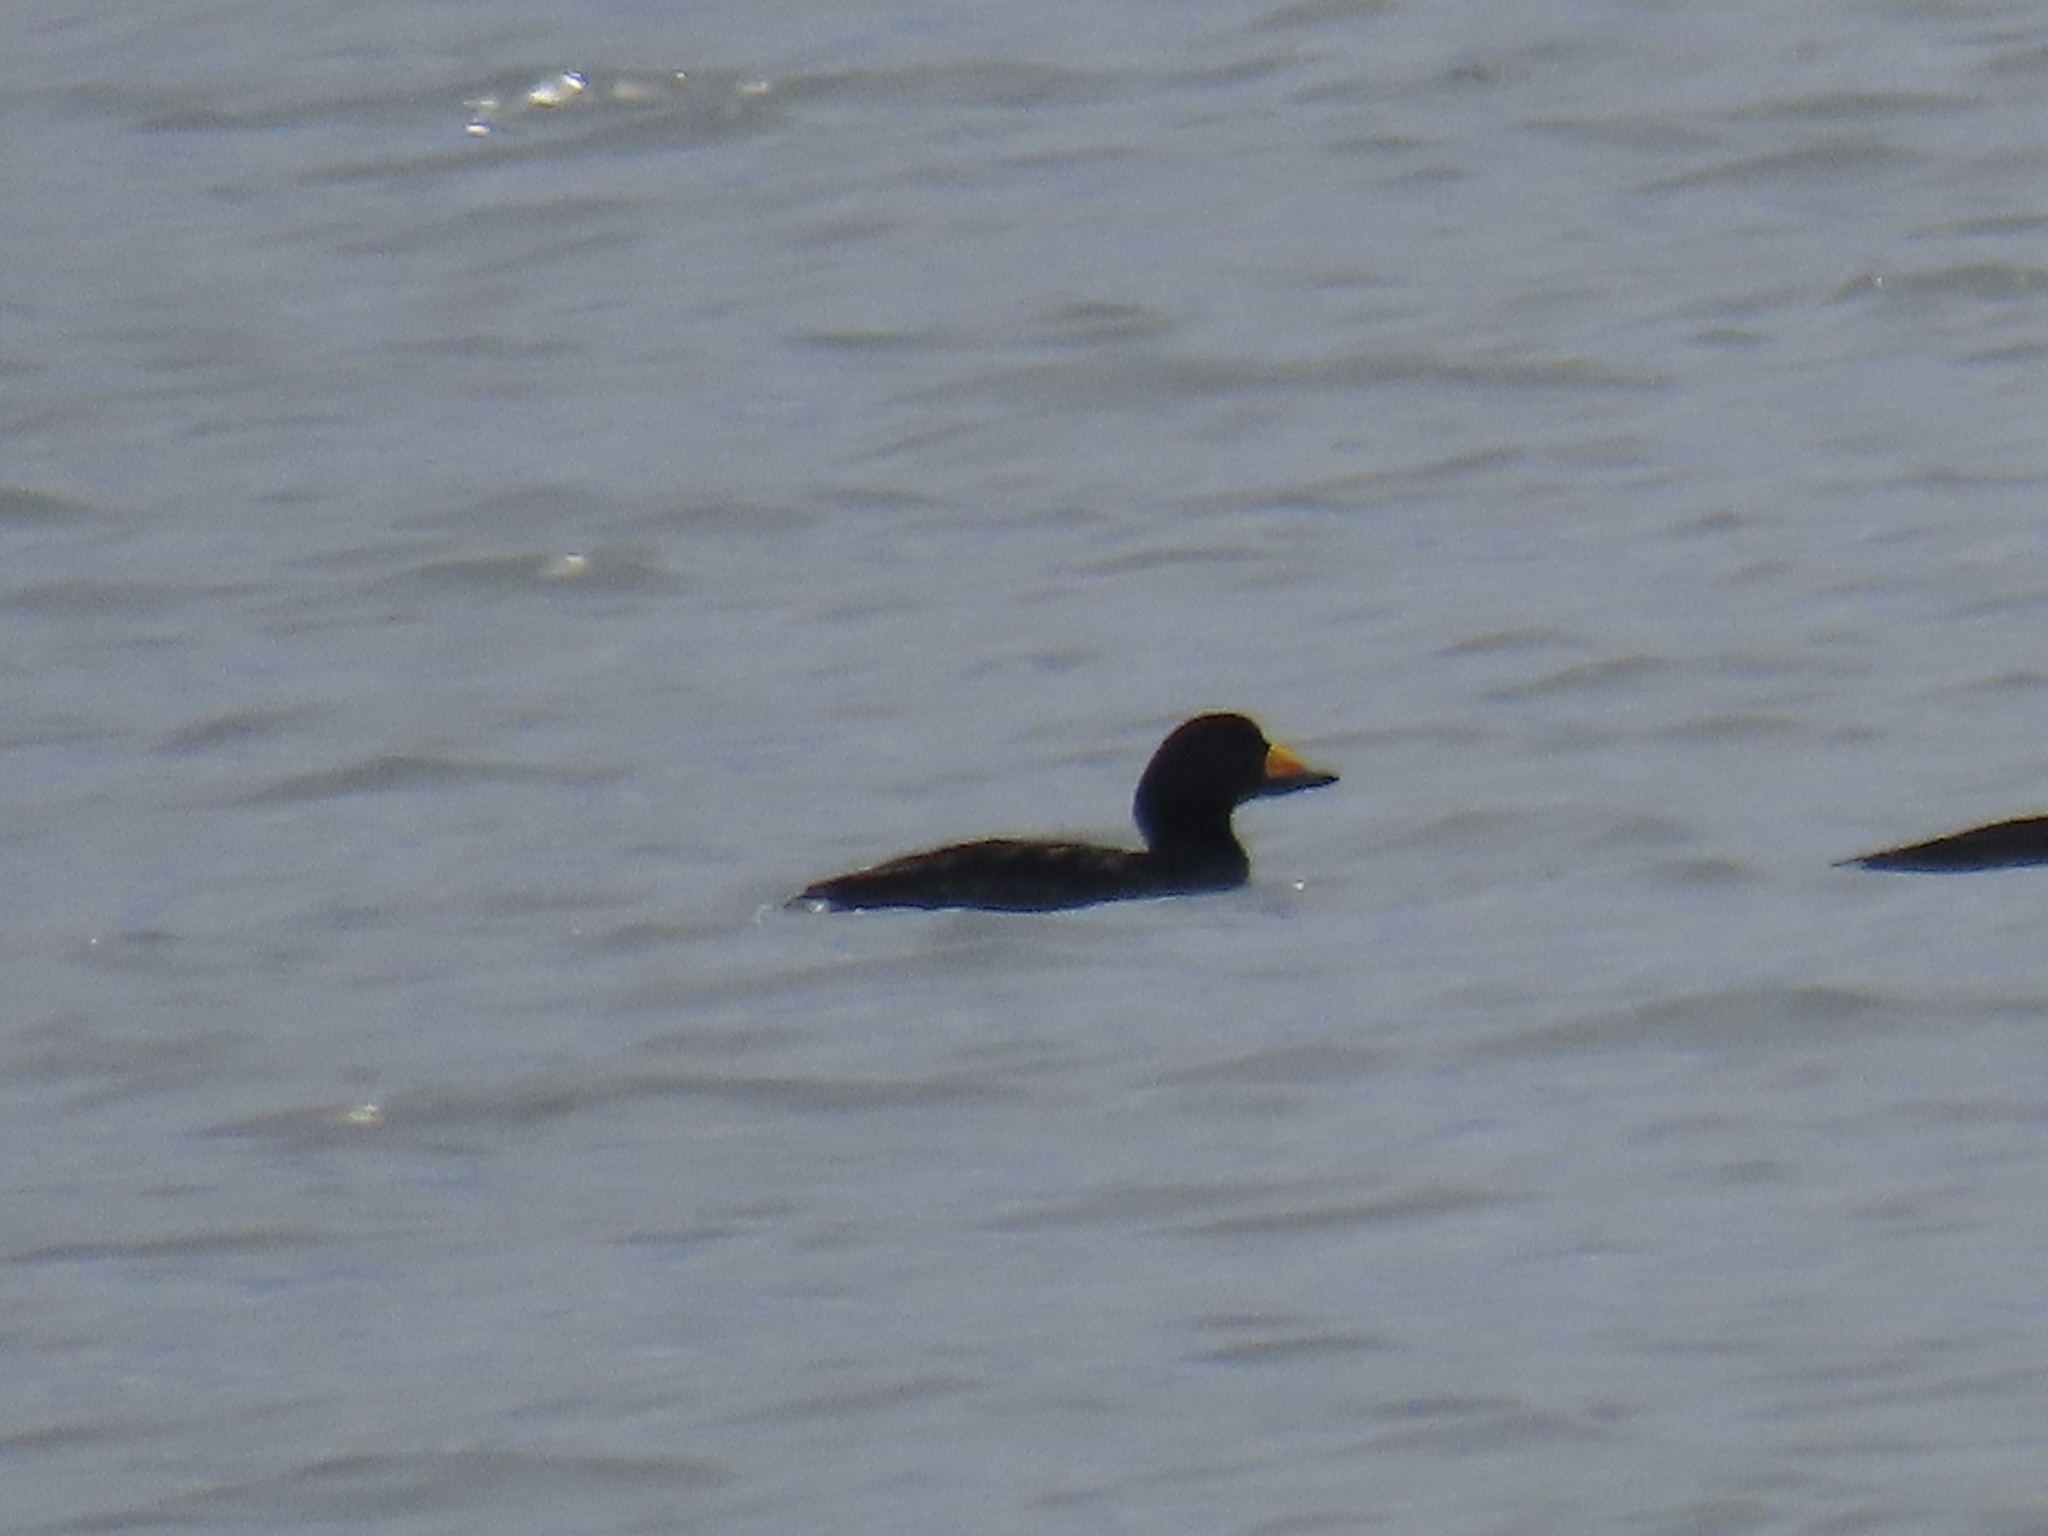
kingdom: Animalia
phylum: Chordata
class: Aves
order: Anseriformes
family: Anatidae
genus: Melanitta
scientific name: Melanitta americana
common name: Black scoter
